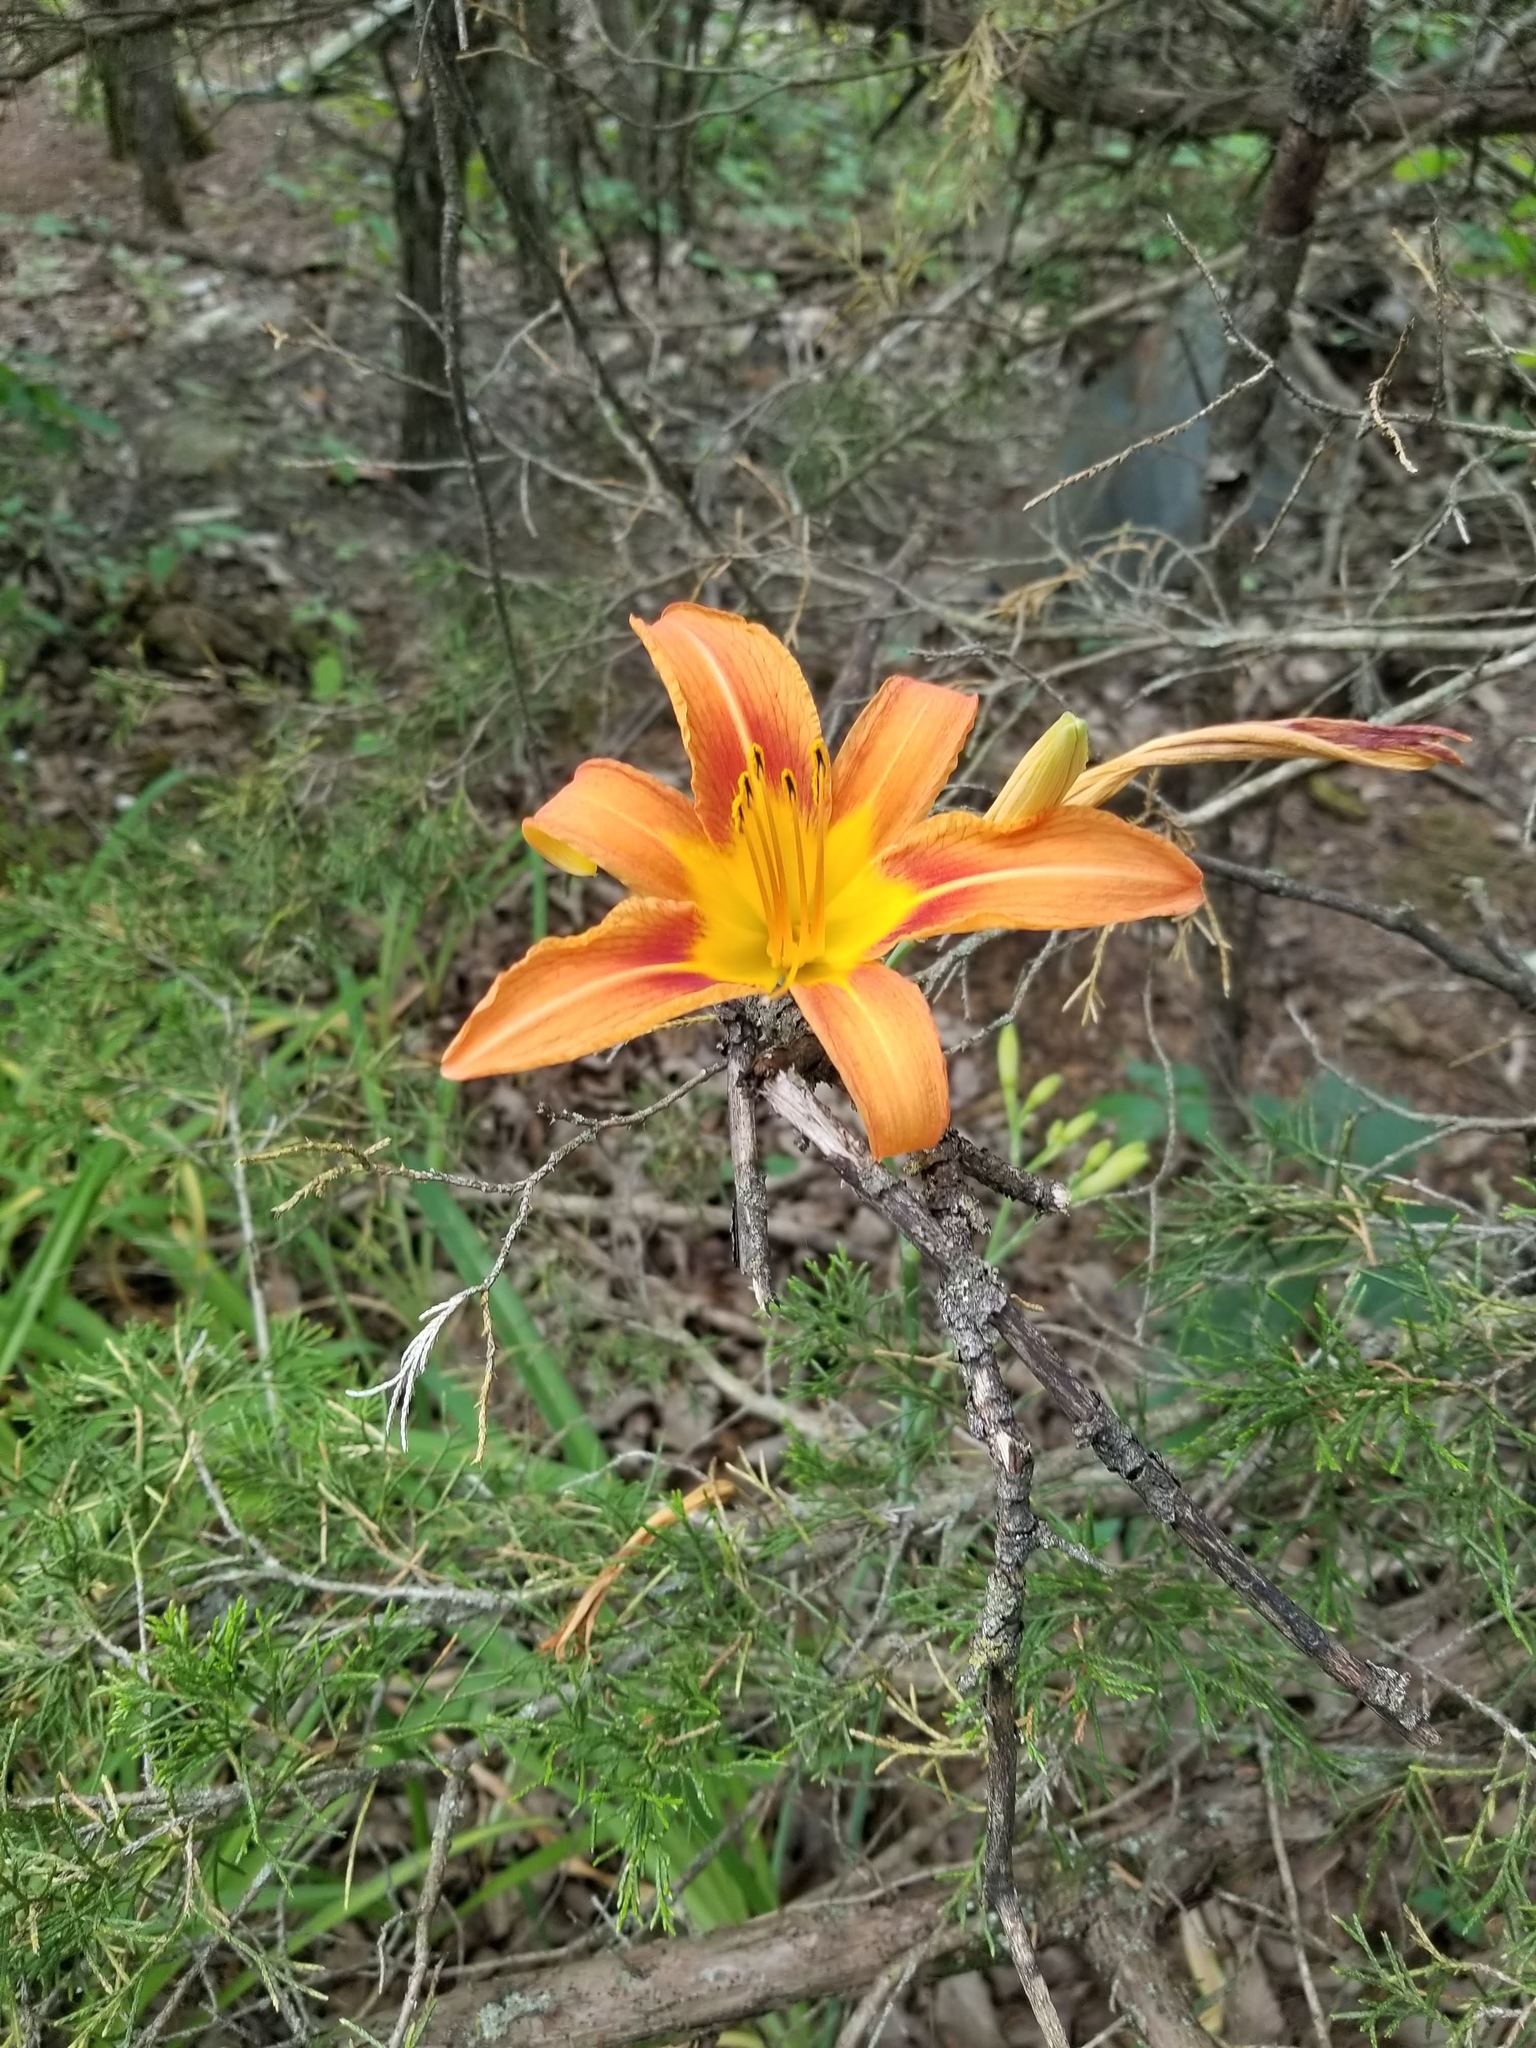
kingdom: Plantae
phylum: Tracheophyta
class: Liliopsida
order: Asparagales
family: Asphodelaceae
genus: Hemerocallis
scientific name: Hemerocallis fulva
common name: Orange day-lily
